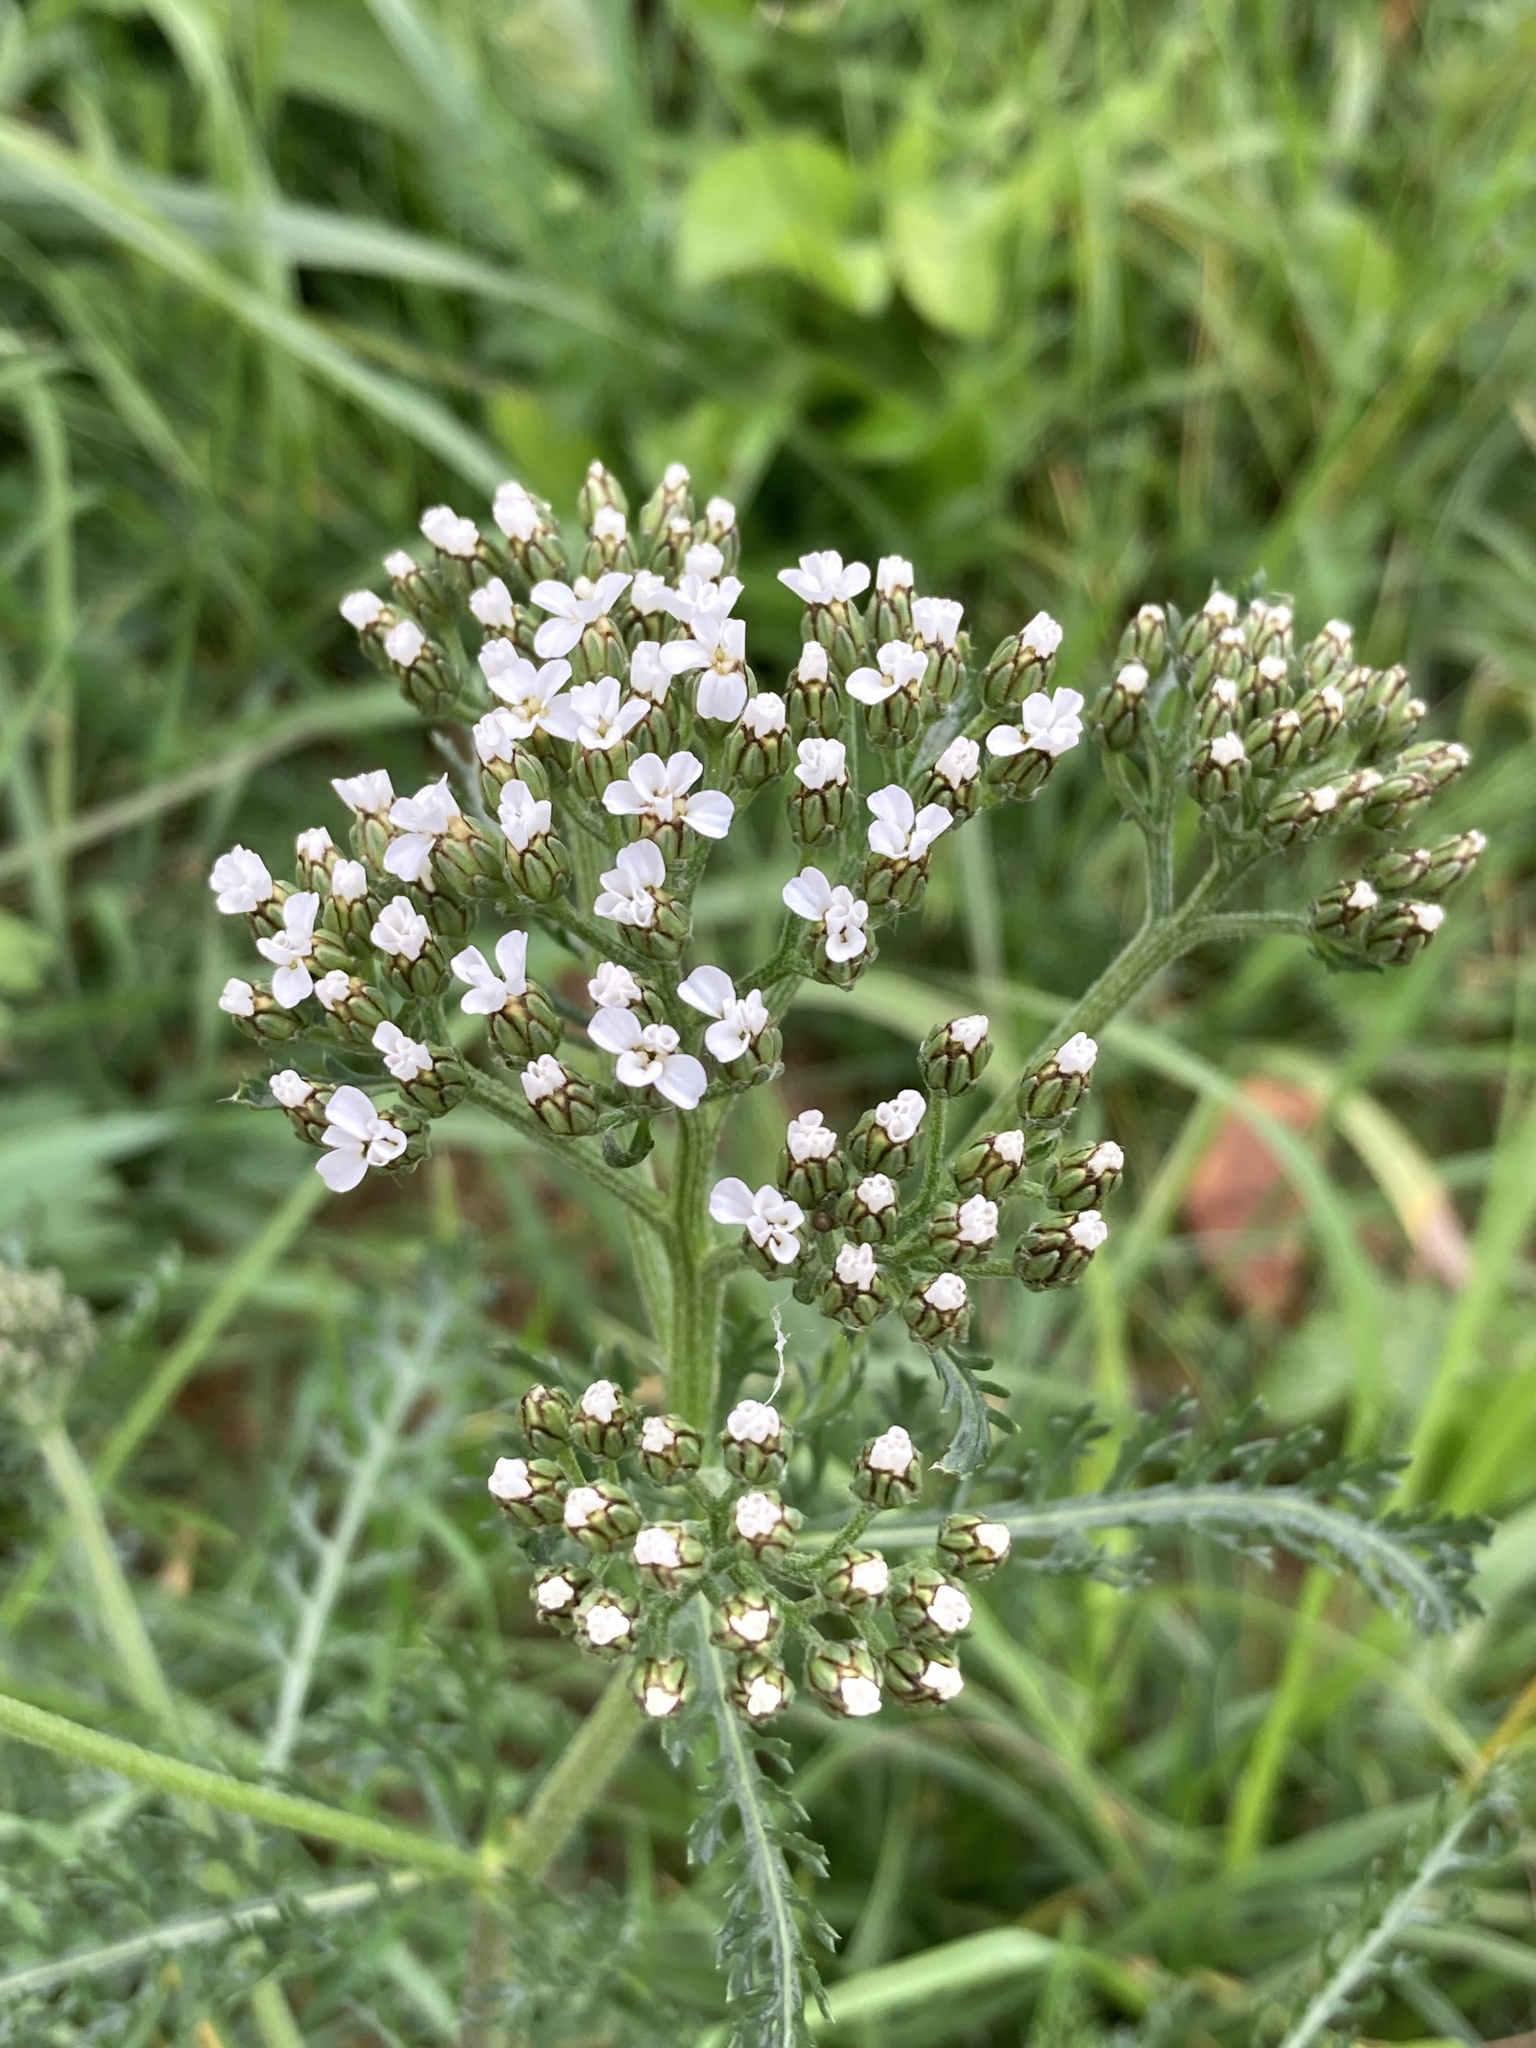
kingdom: Plantae
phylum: Tracheophyta
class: Magnoliopsida
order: Asterales
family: Asteraceae
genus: Achillea
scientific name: Achillea millefolium
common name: Yarrow
